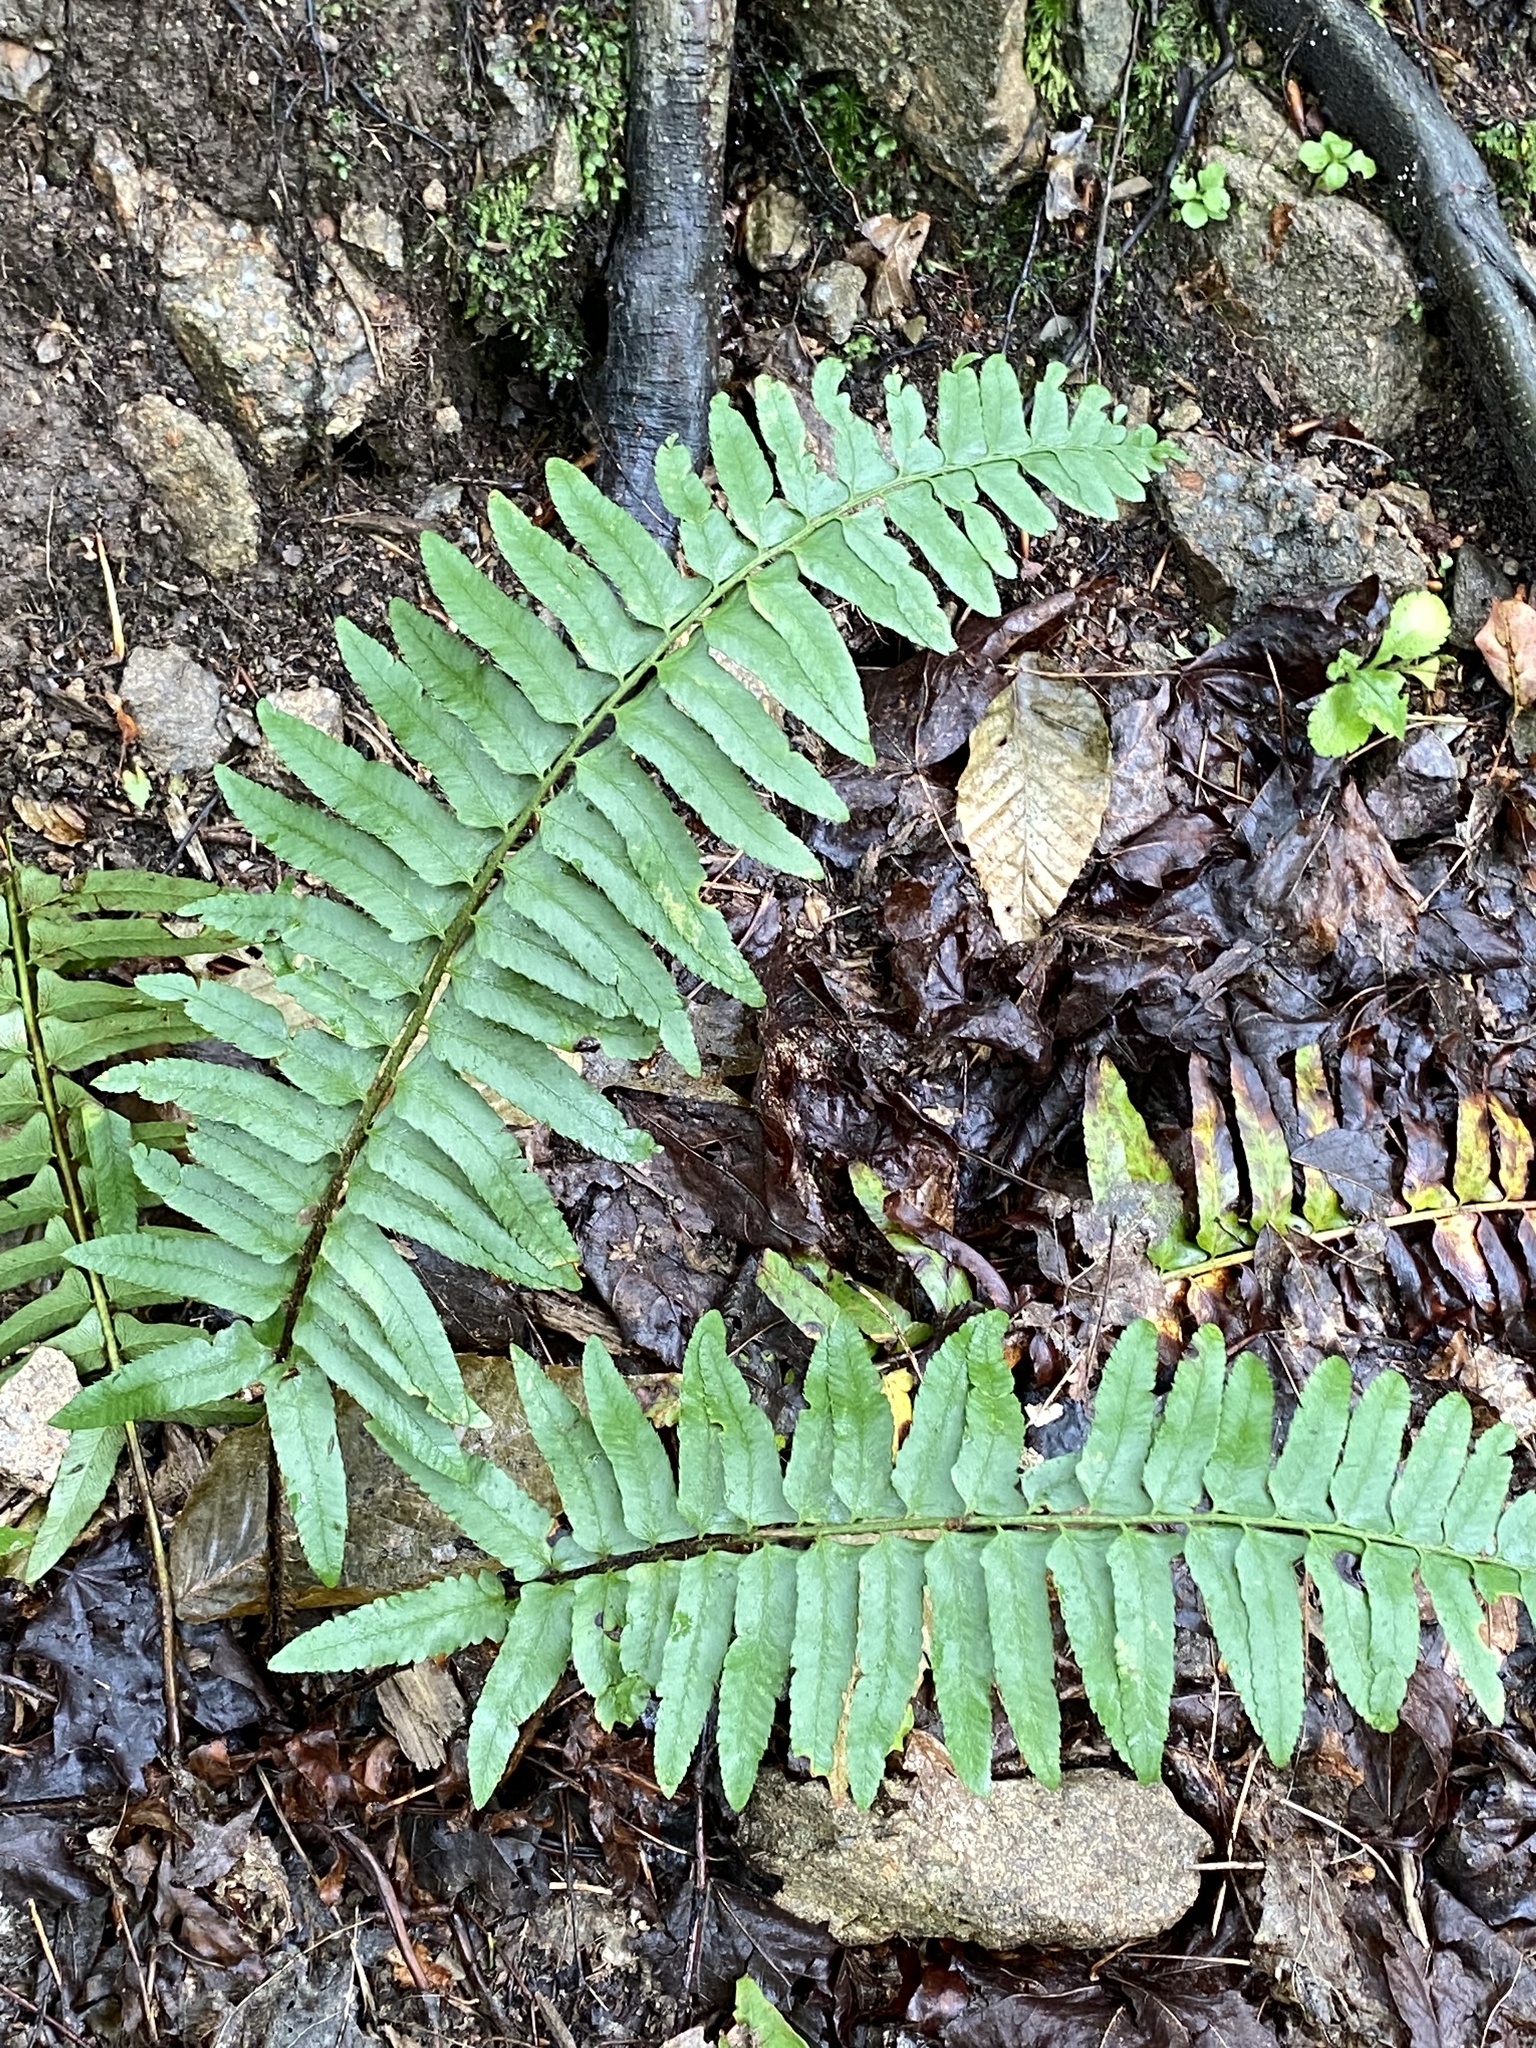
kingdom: Plantae
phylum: Tracheophyta
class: Polypodiopsida
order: Polypodiales
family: Dryopteridaceae
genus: Polystichum
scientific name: Polystichum acrostichoides
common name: Christmas fern
